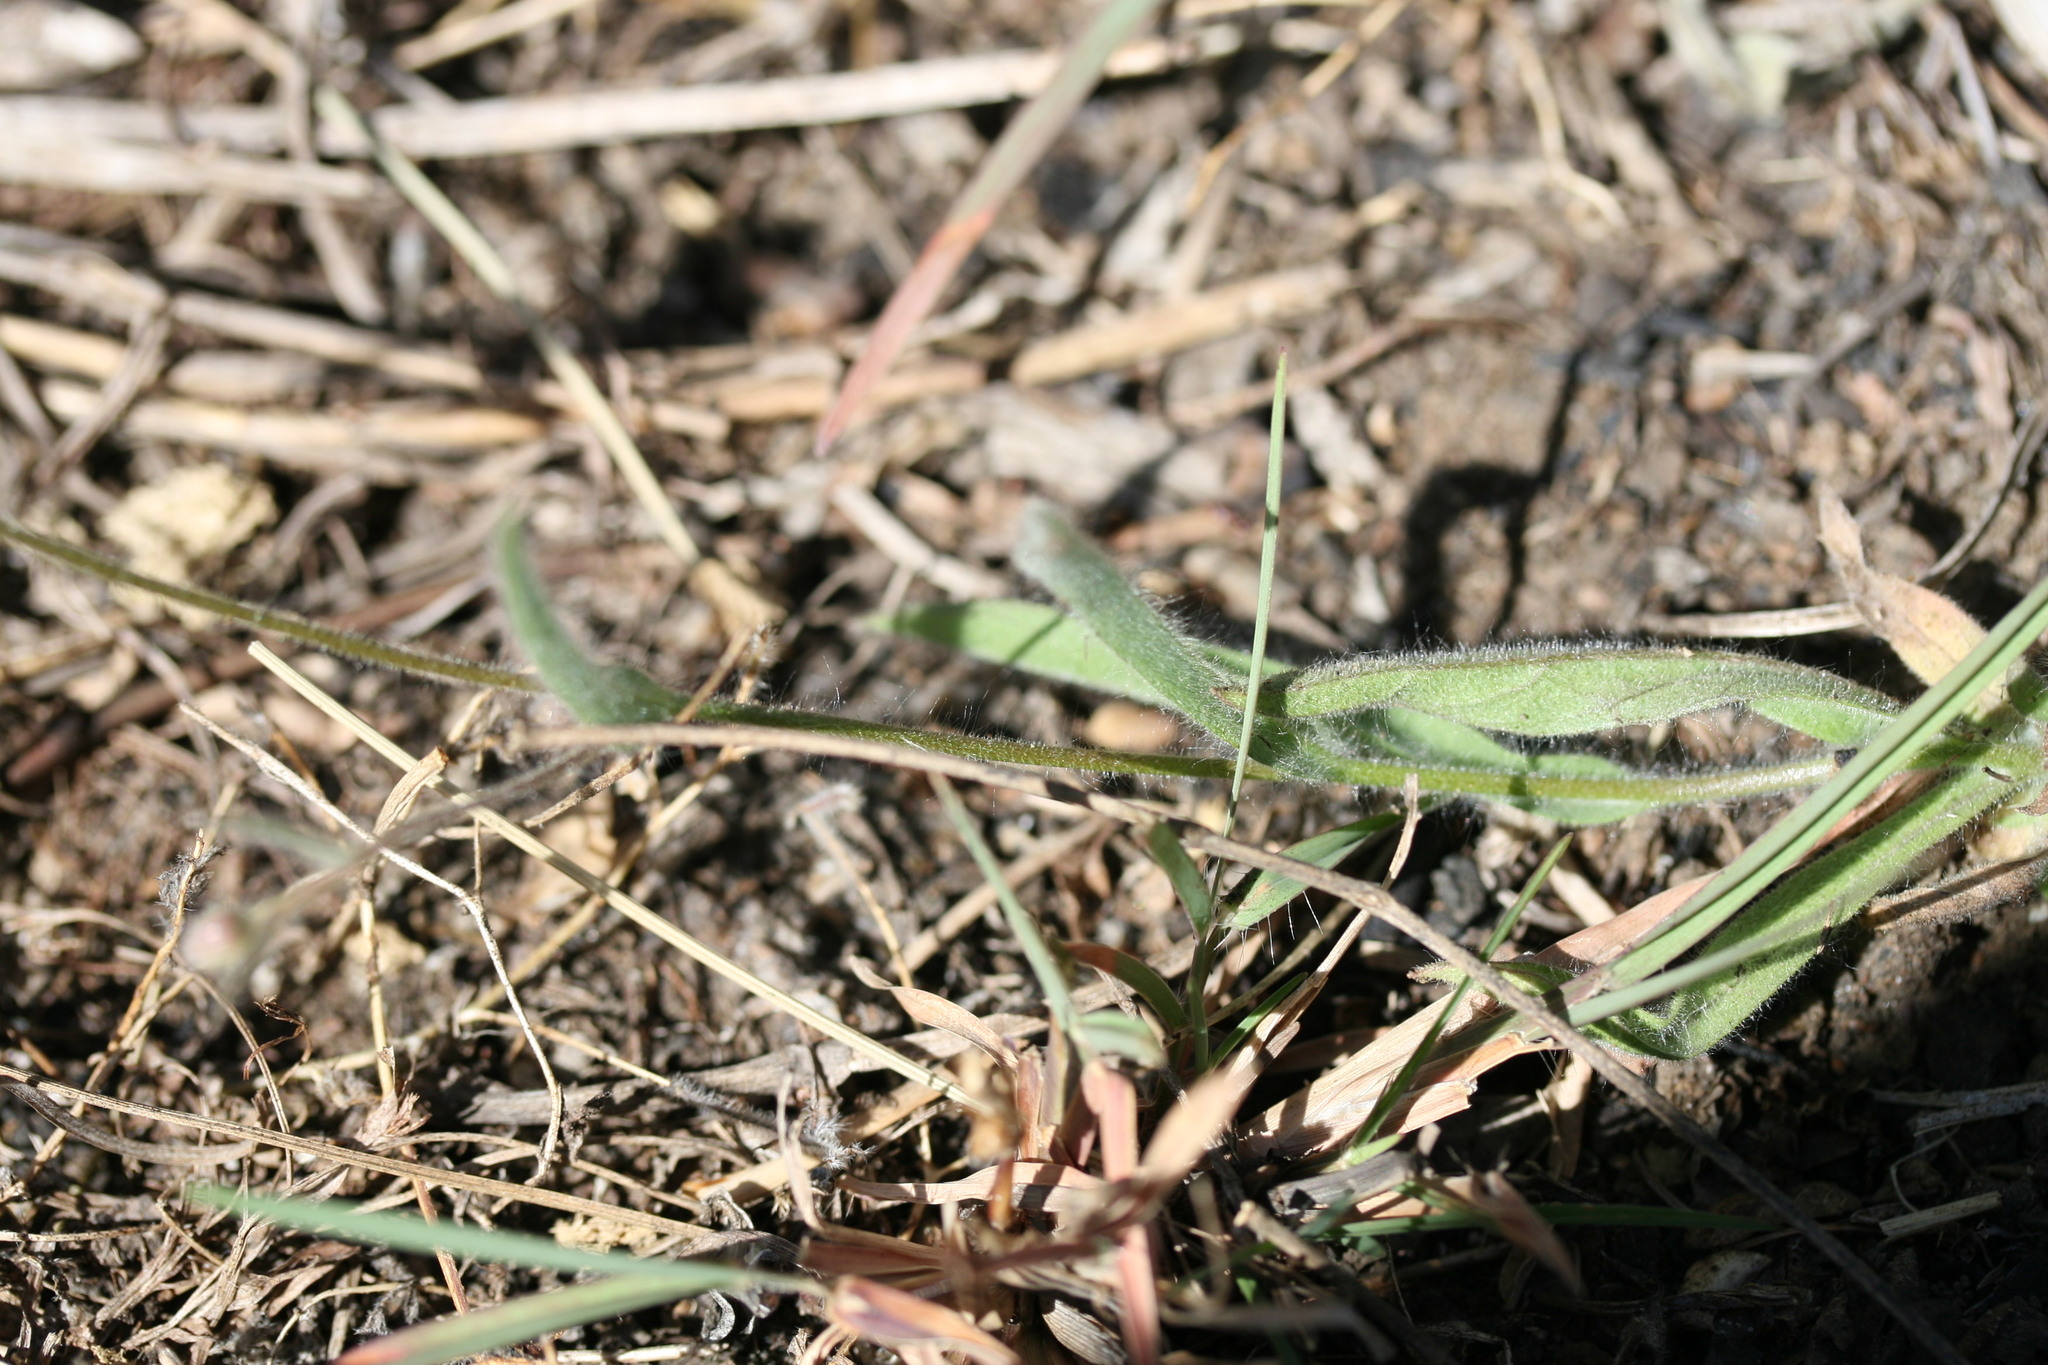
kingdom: Plantae
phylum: Tracheophyta
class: Magnoliopsida
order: Asterales
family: Asteraceae
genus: Blumea
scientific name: Blumea integrifolia
